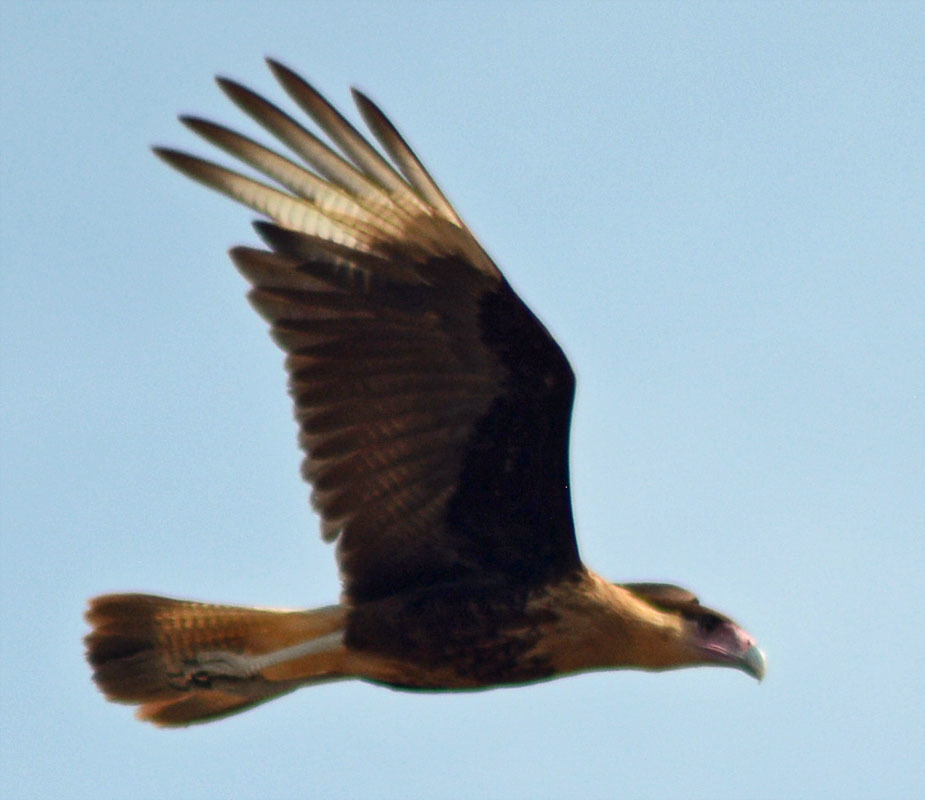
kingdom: Animalia
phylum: Chordata
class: Aves
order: Falconiformes
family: Falconidae
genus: Caracara
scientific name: Caracara plancus
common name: Southern caracara
